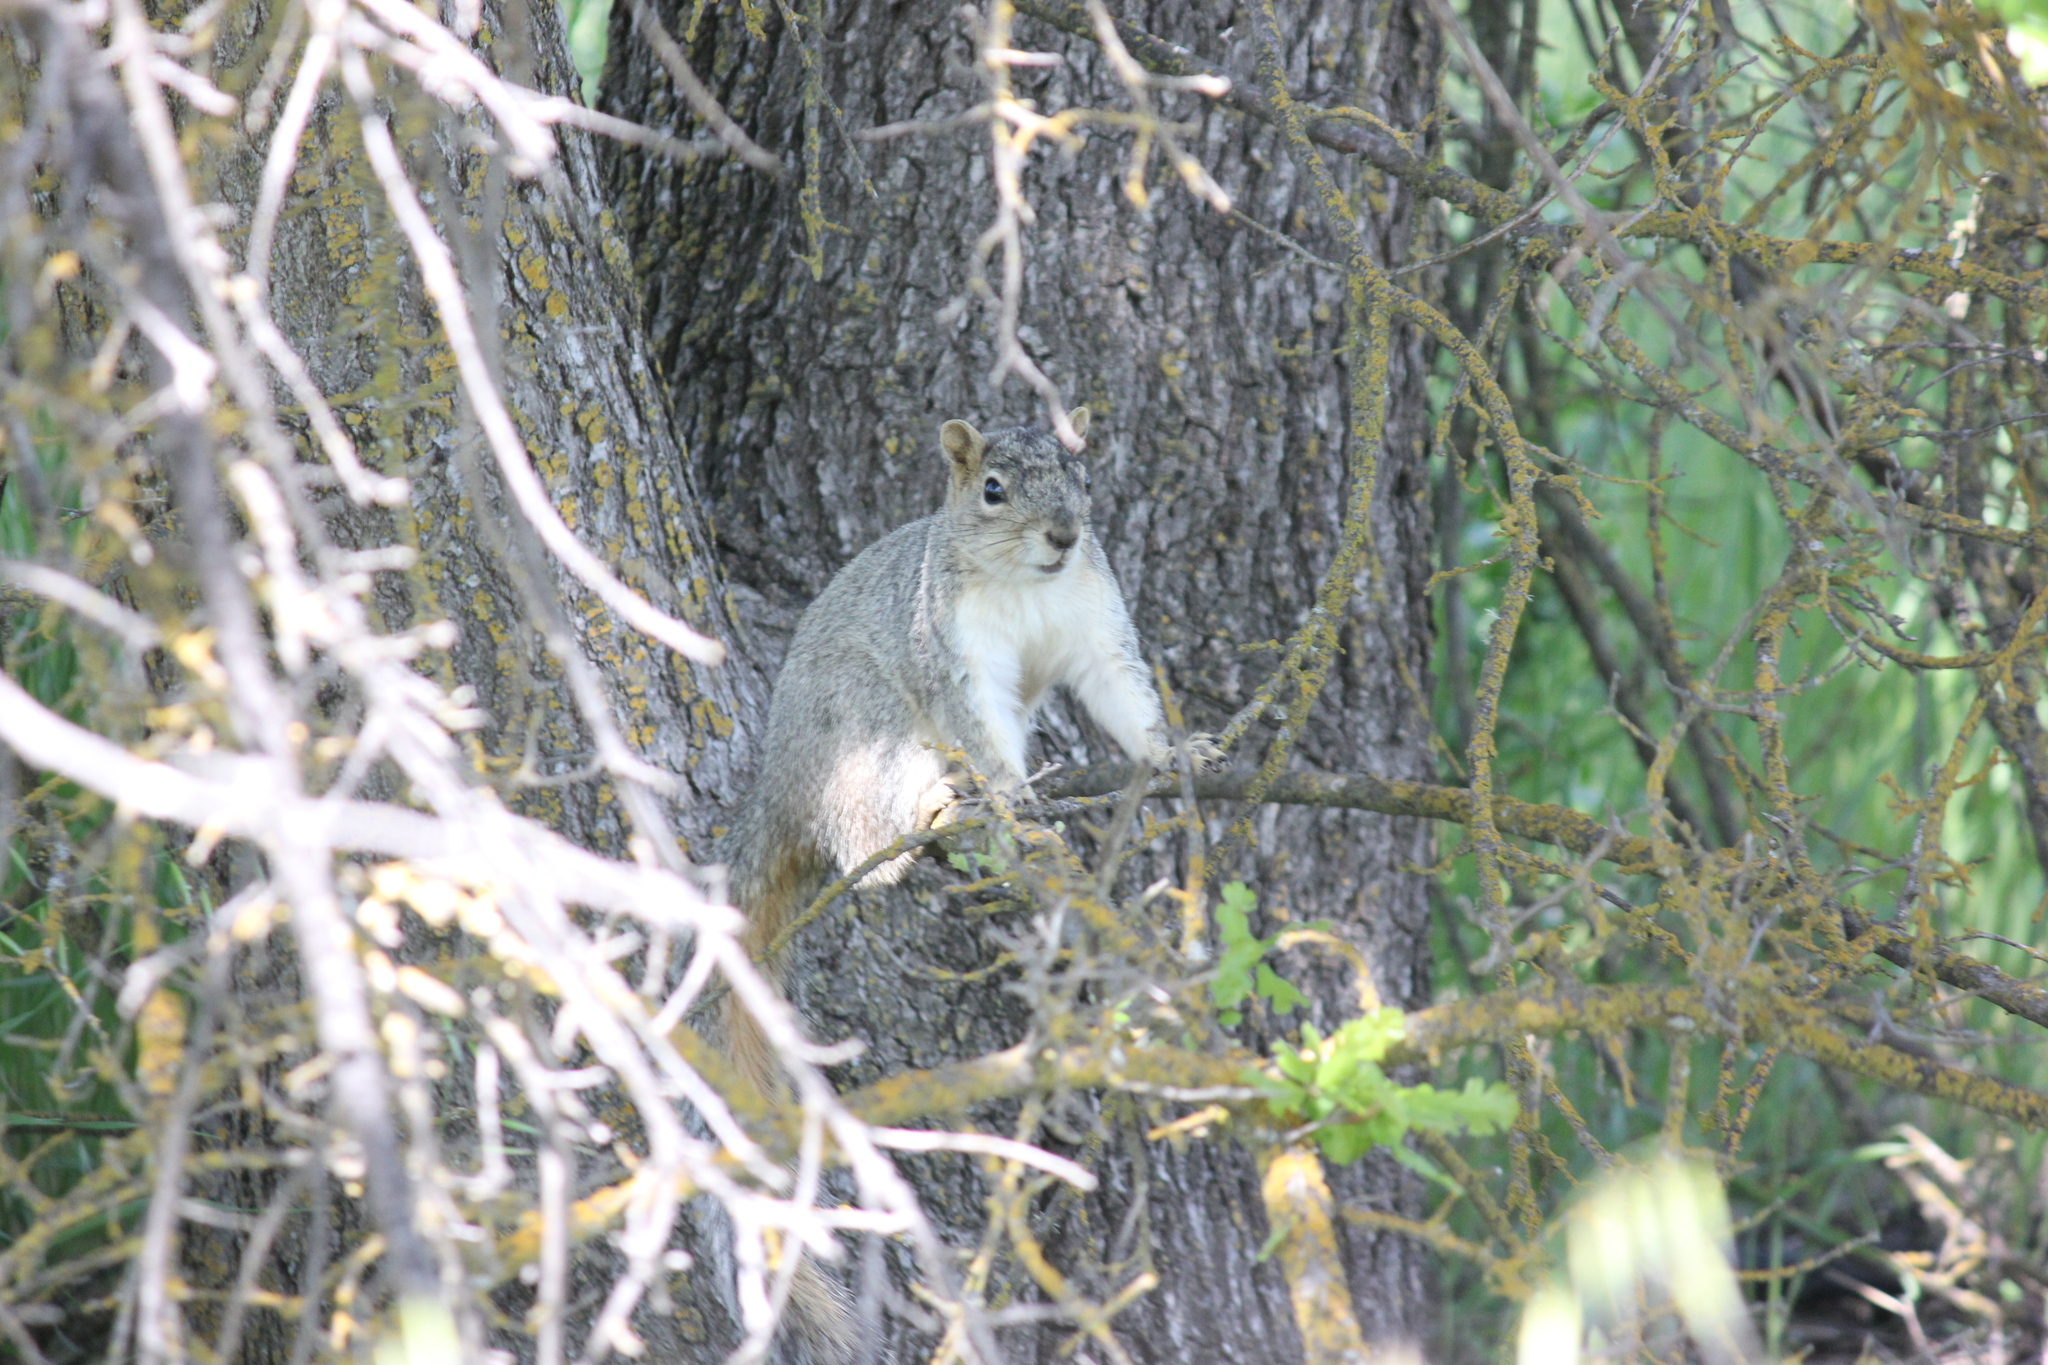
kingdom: Animalia
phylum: Chordata
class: Mammalia
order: Rodentia
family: Sciuridae
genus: Sciurus
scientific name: Sciurus niger
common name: Fox squirrel
